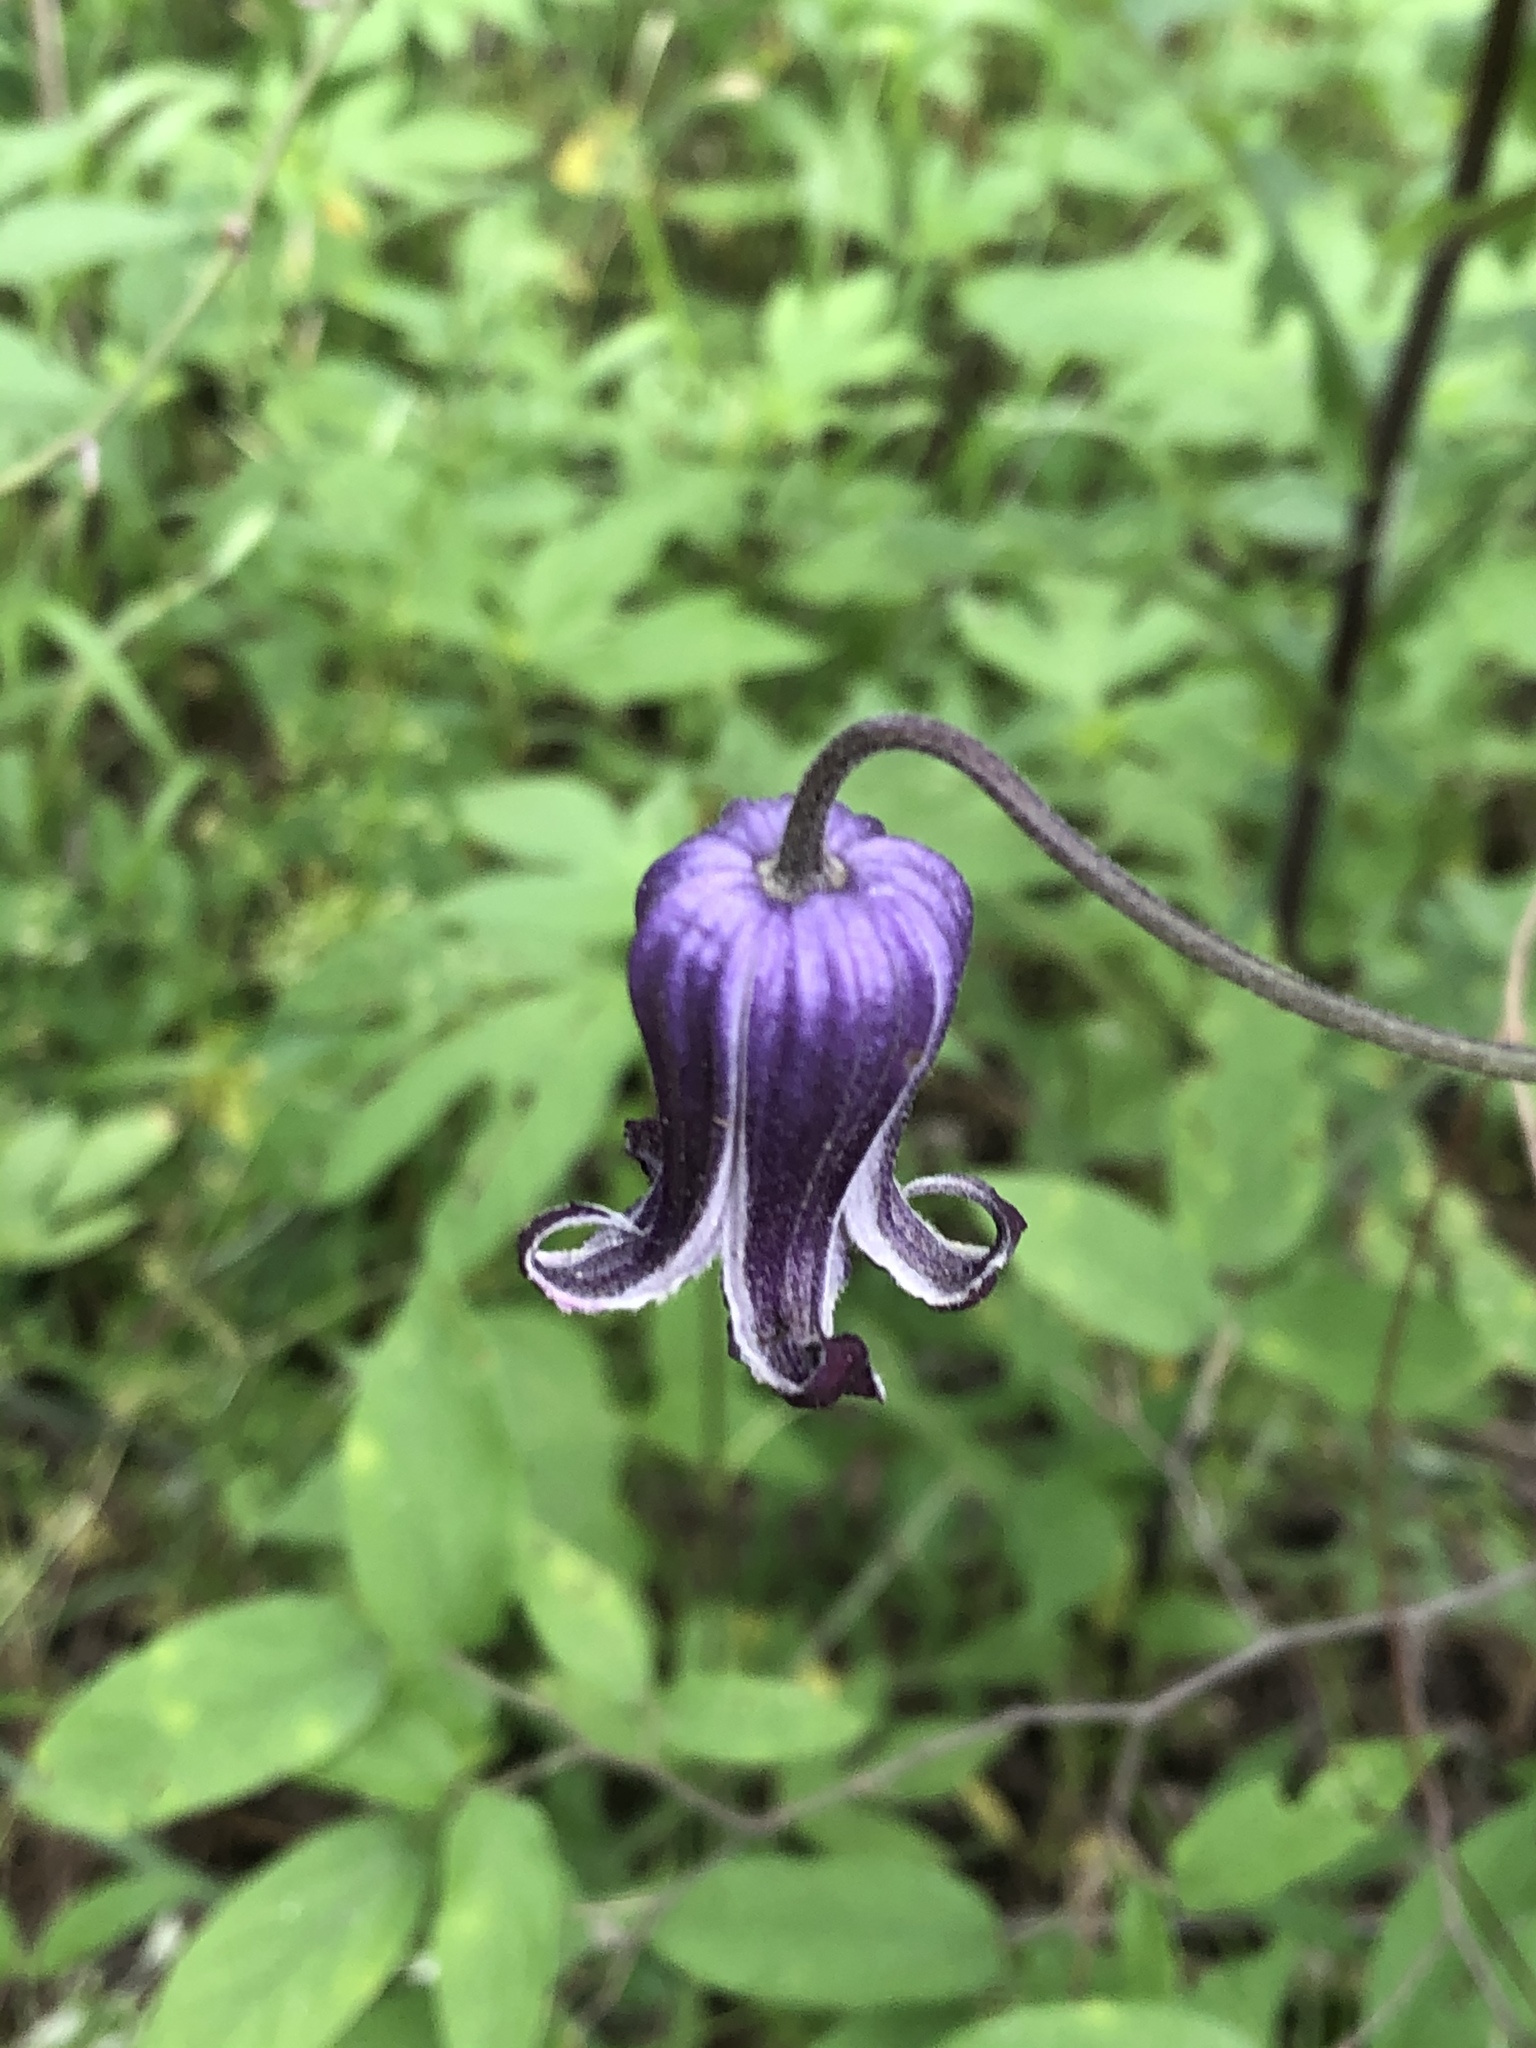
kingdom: Plantae
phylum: Tracheophyta
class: Magnoliopsida
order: Ranunculales
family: Ranunculaceae
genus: Clematis
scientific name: Clematis pitcheri
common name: Bellflower clematis
